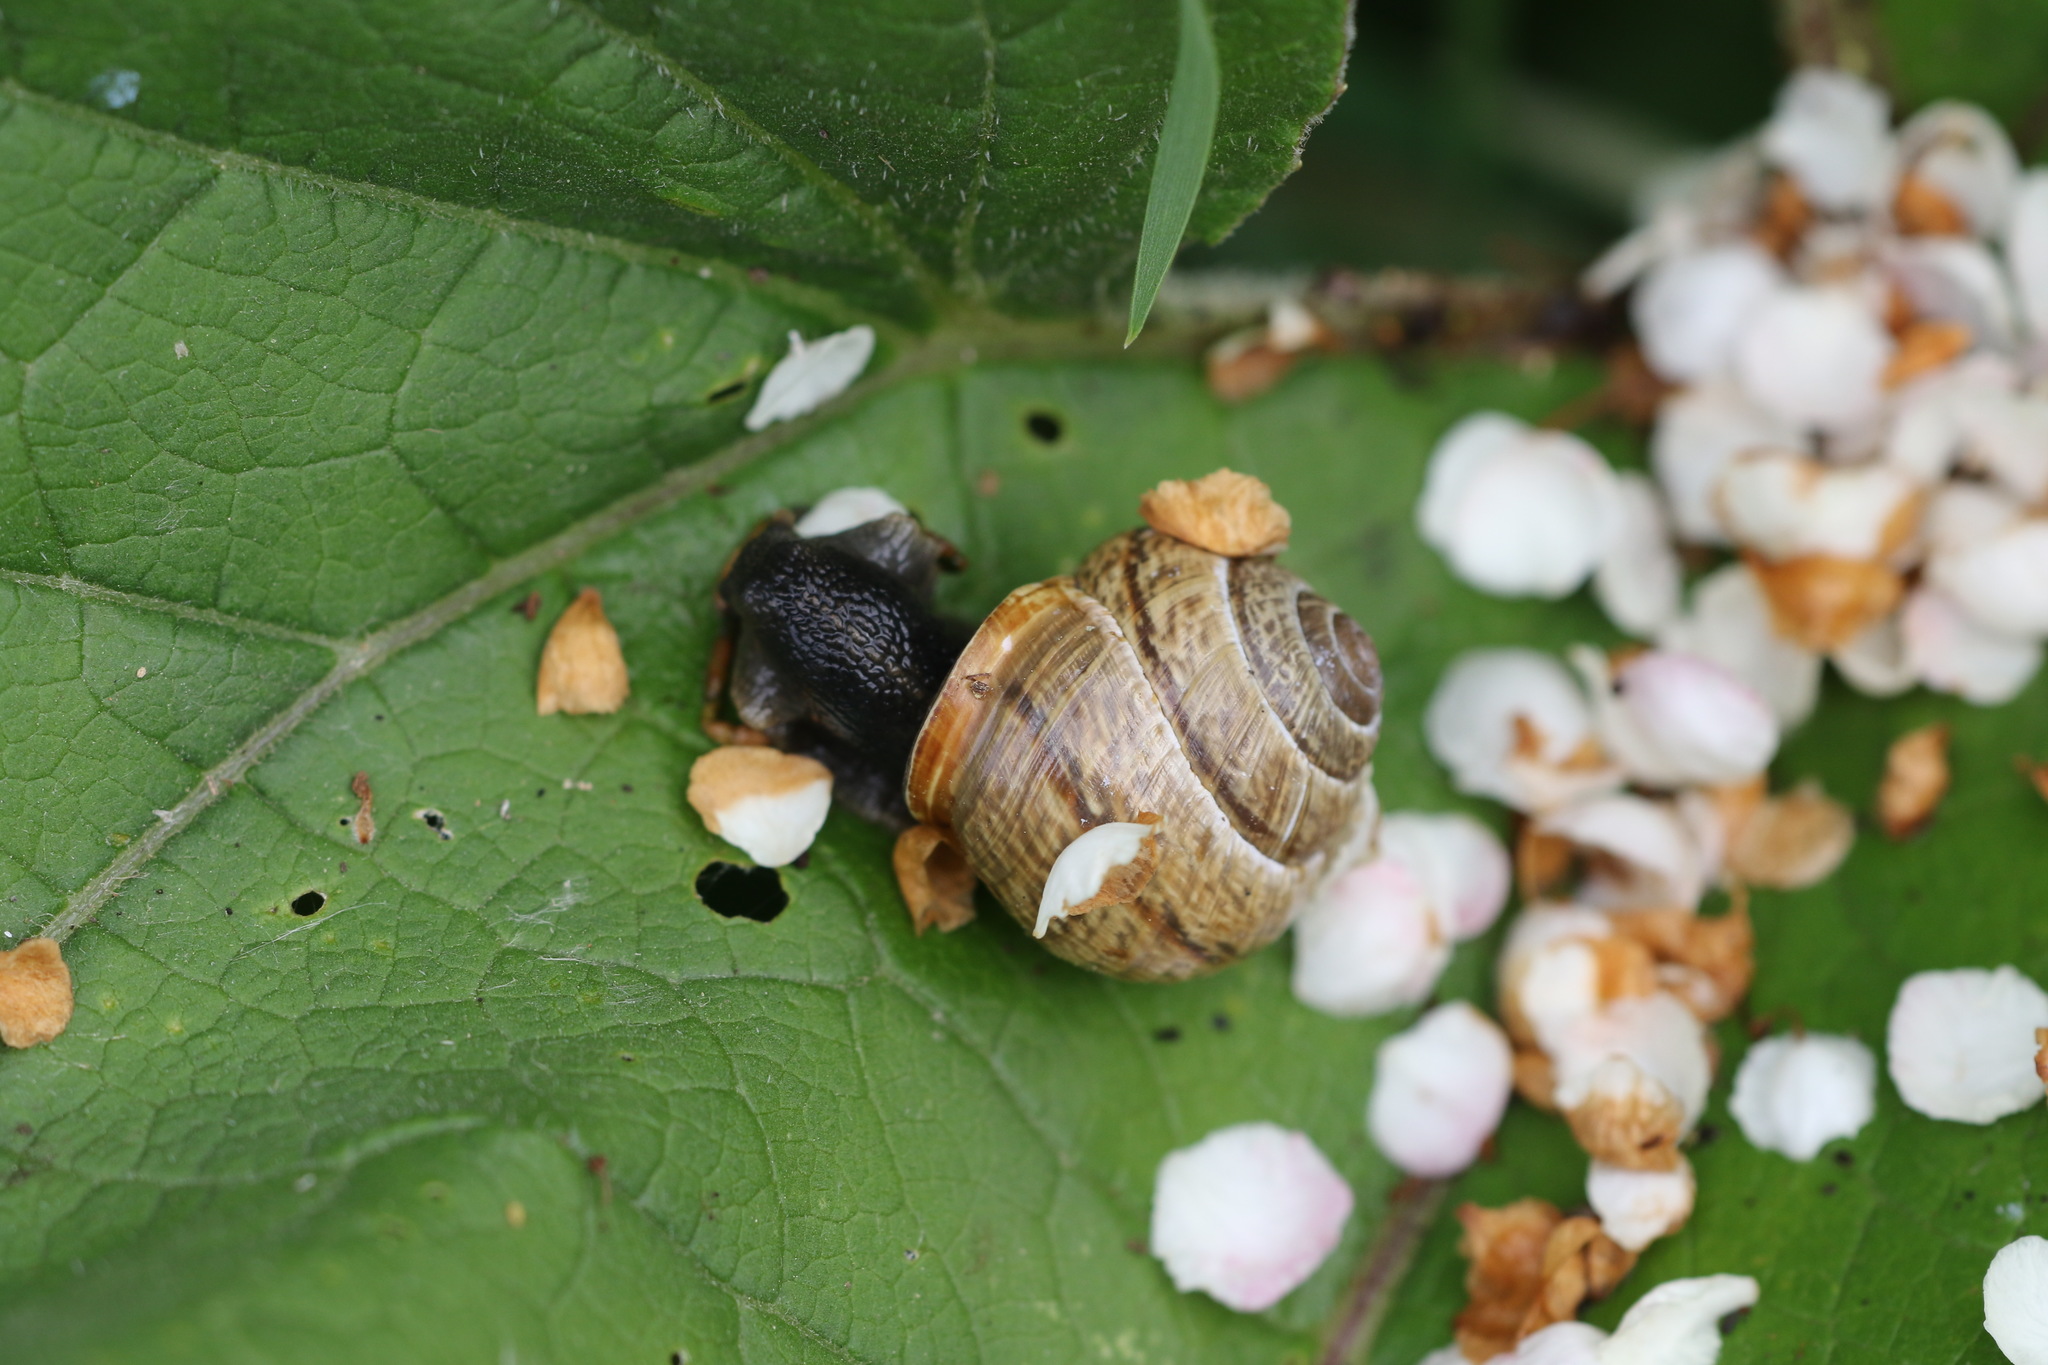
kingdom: Animalia
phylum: Mollusca
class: Gastropoda
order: Stylommatophora
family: Helicidae
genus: Arianta
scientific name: Arianta arbustorum
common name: Copse snail
